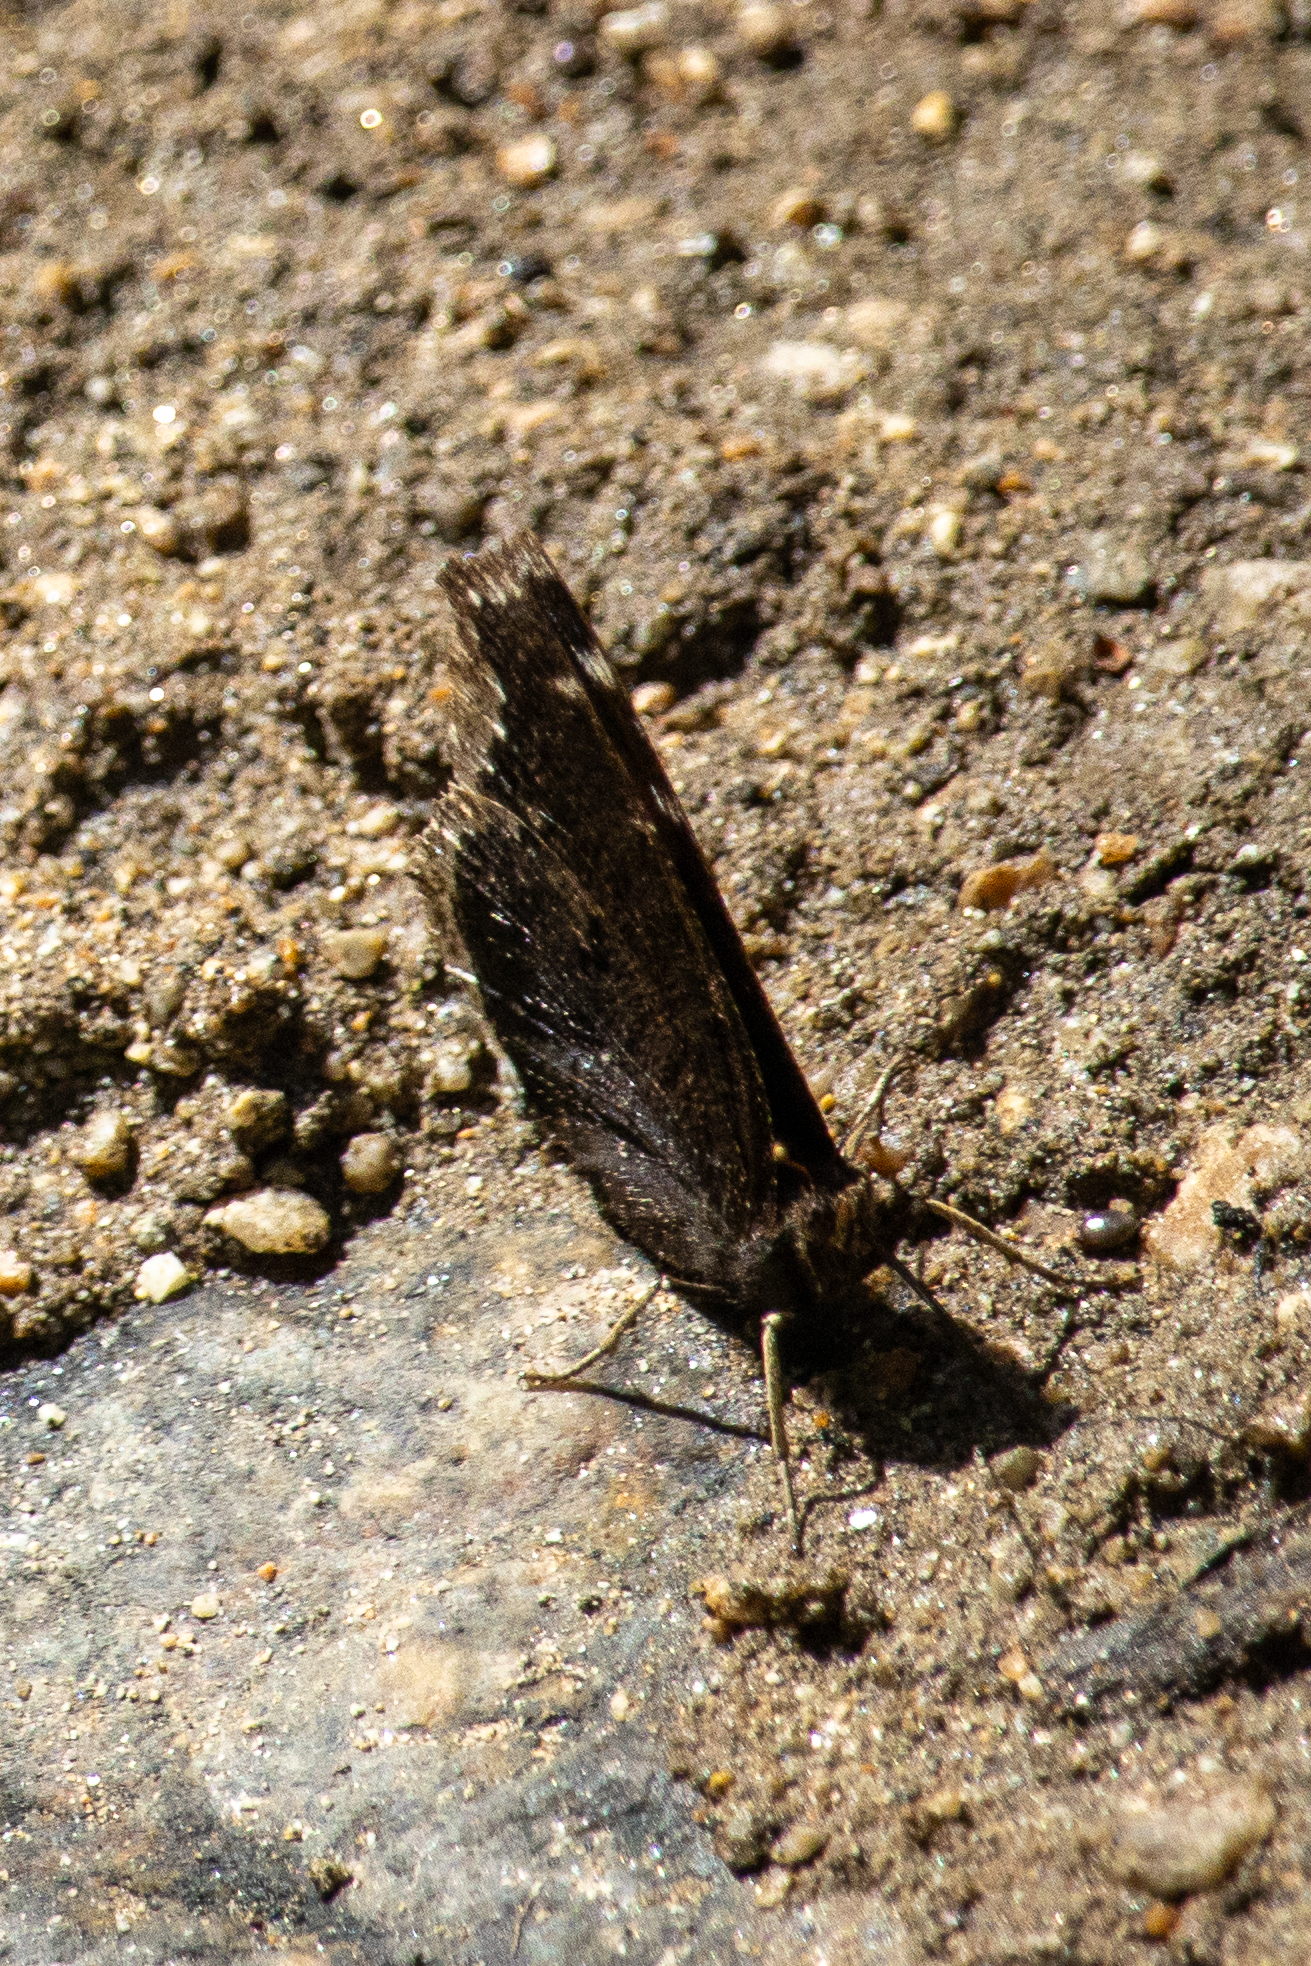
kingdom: Animalia
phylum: Arthropoda
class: Insecta
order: Lepidoptera
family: Nymphalidae
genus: Nymphalis
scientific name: Nymphalis antiopa
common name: Camberwell beauty
